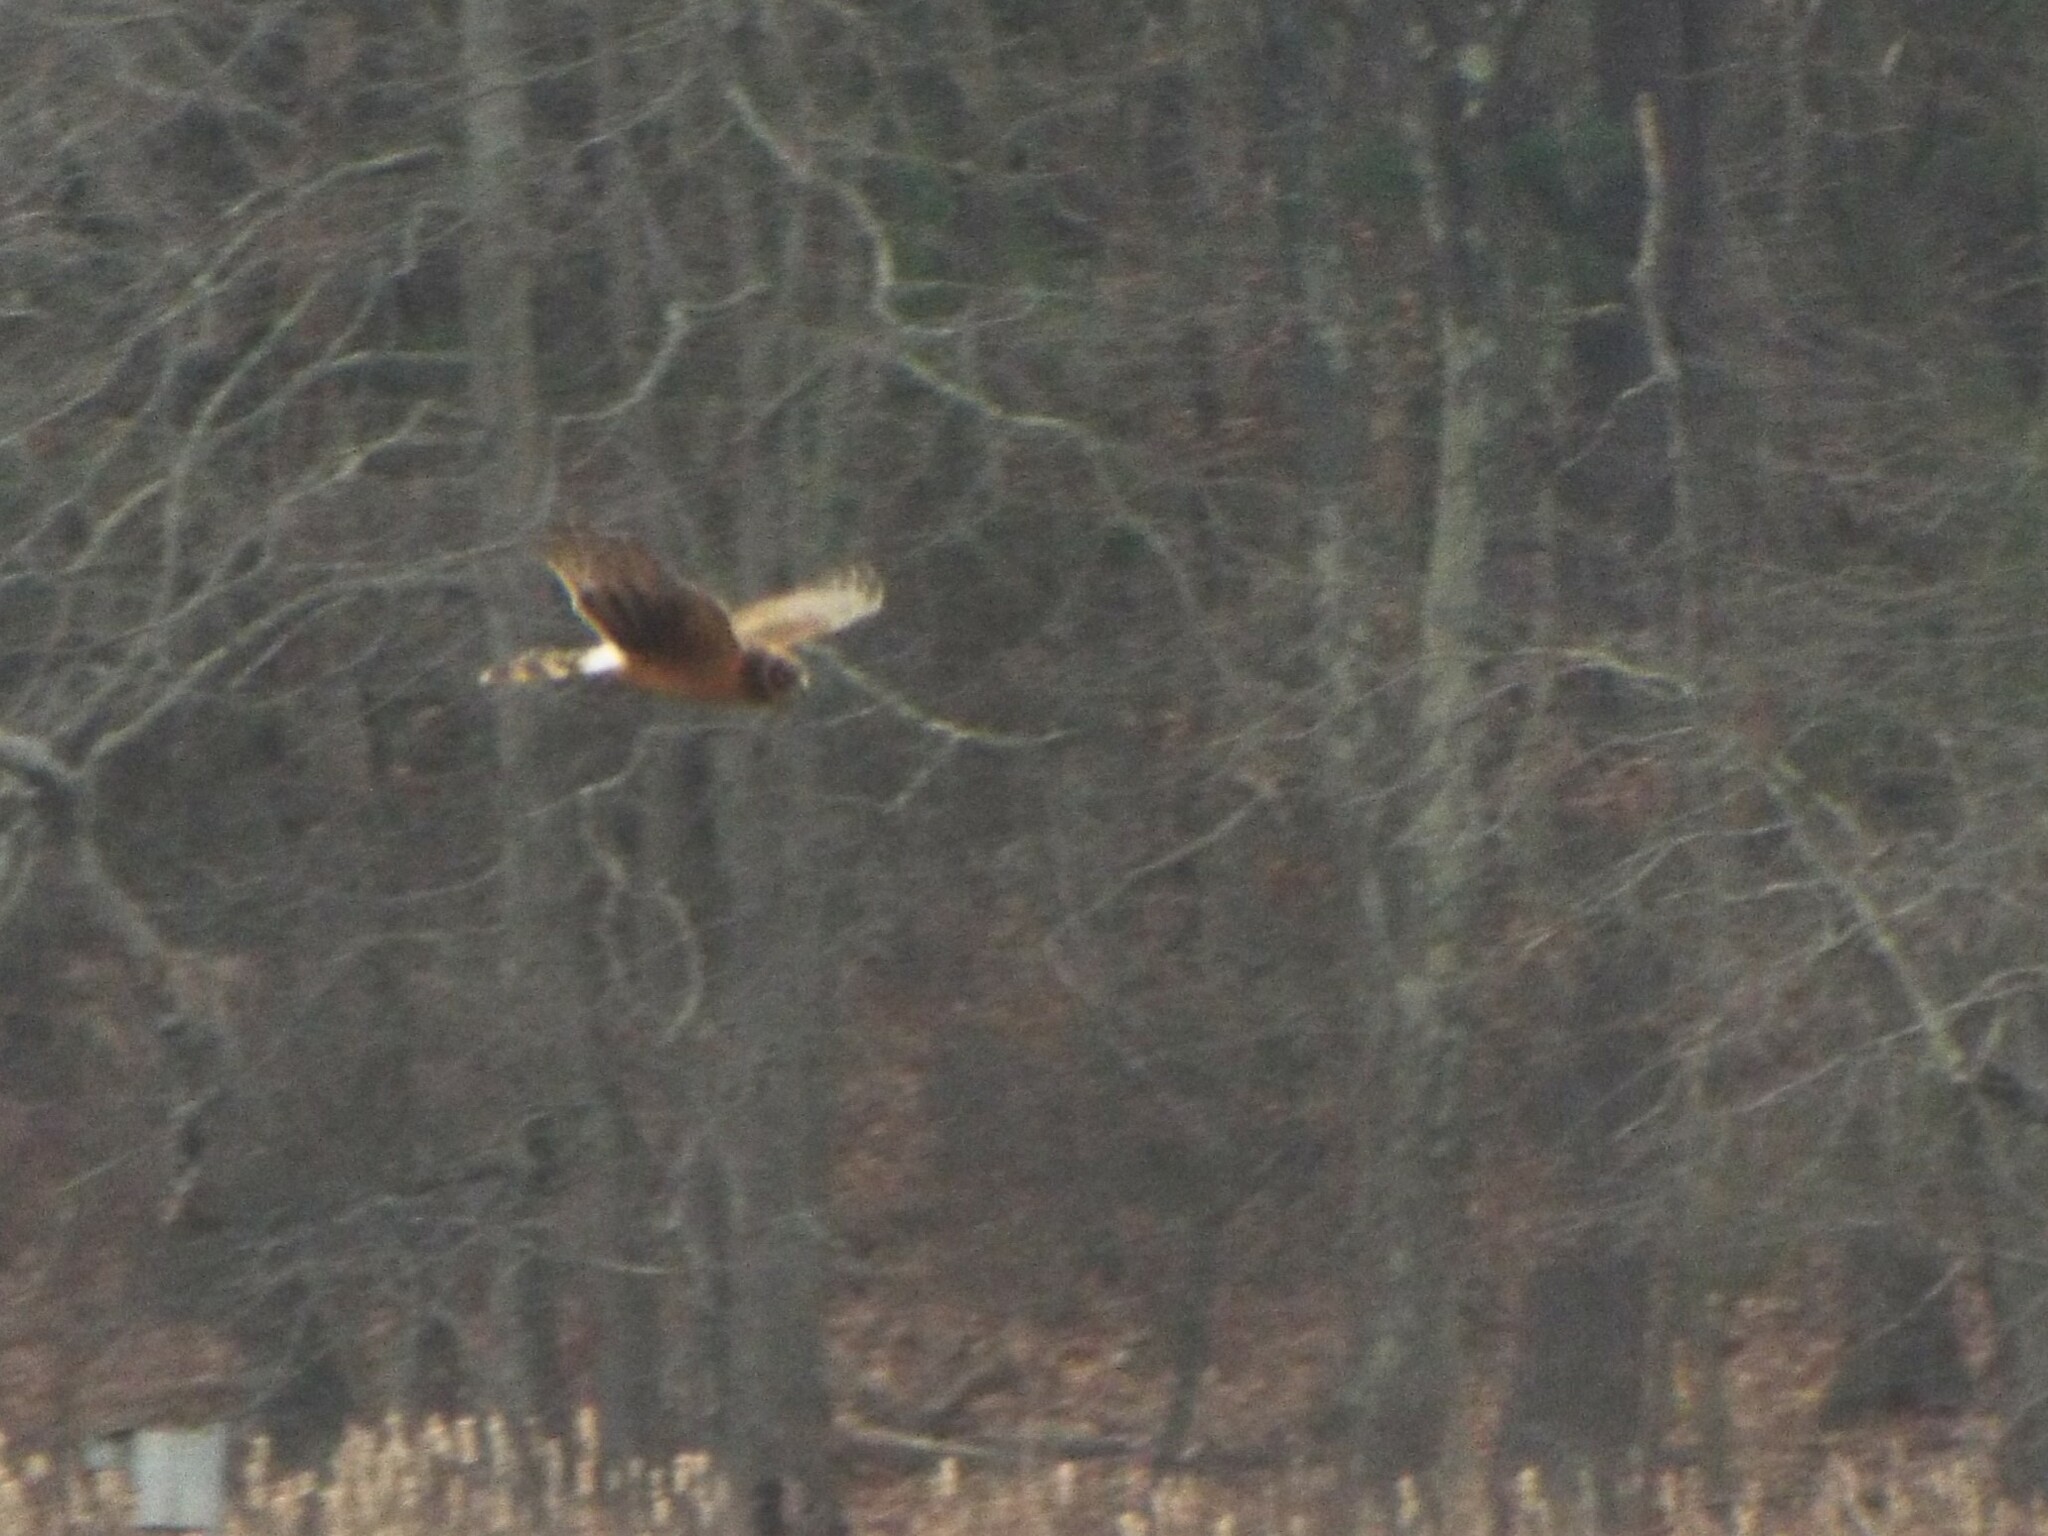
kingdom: Animalia
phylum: Chordata
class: Aves
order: Accipitriformes
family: Accipitridae
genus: Circus
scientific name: Circus cyaneus
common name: Hen harrier
